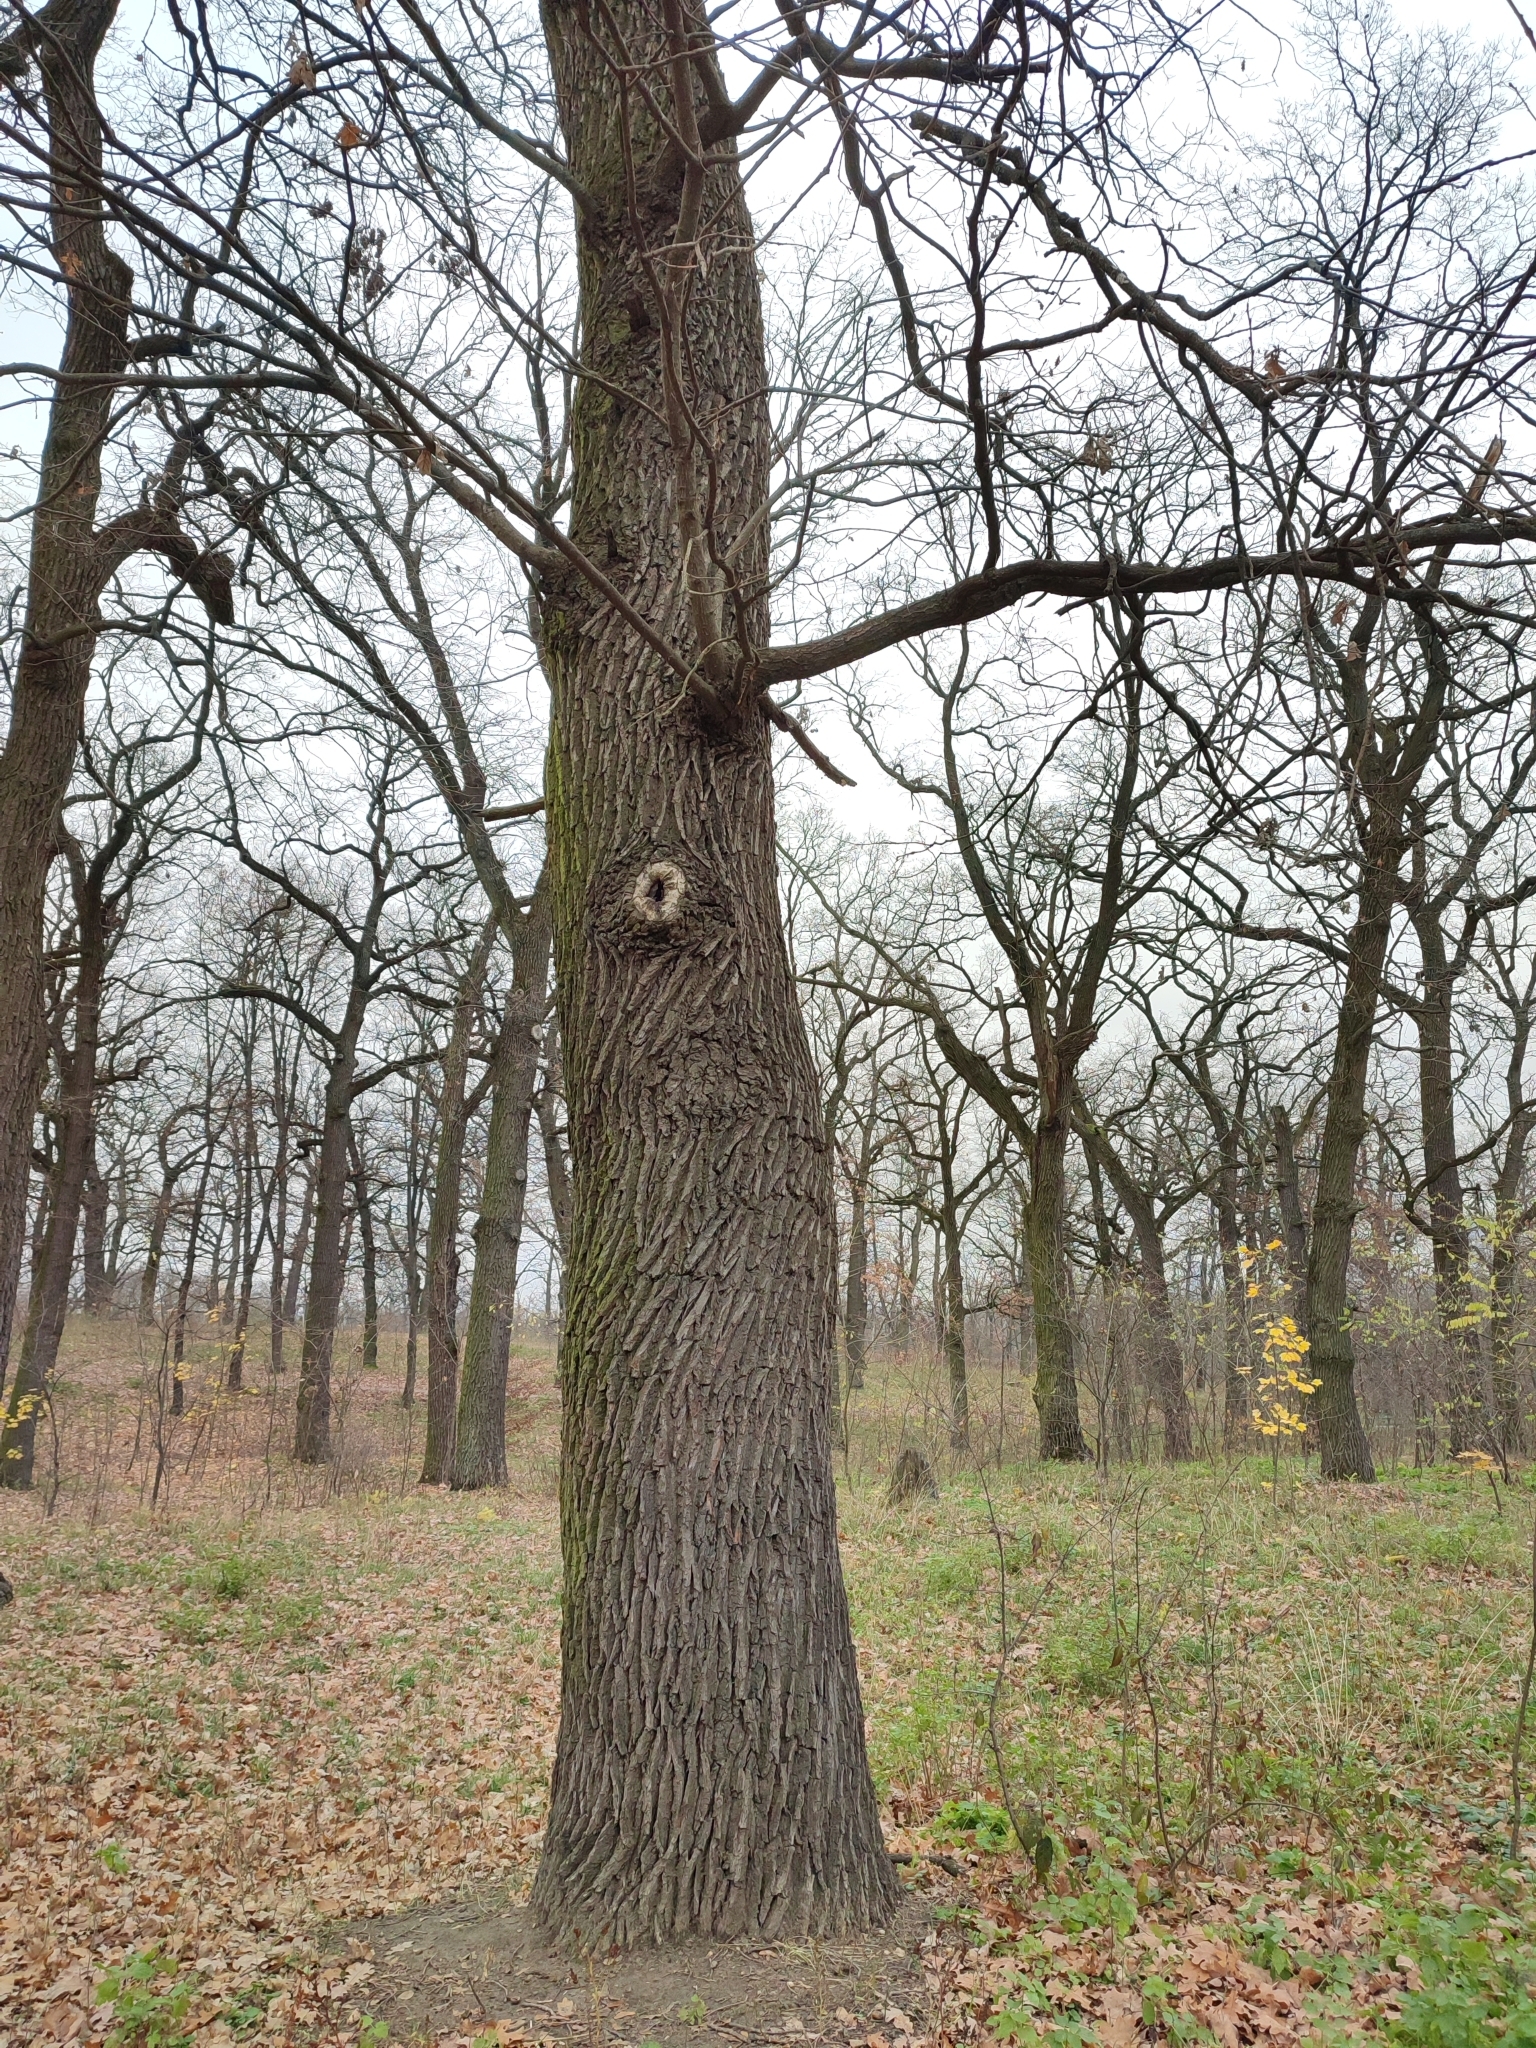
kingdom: Plantae
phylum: Tracheophyta
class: Magnoliopsida
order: Fagales
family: Fagaceae
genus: Quercus
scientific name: Quercus robur
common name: Pedunculate oak
